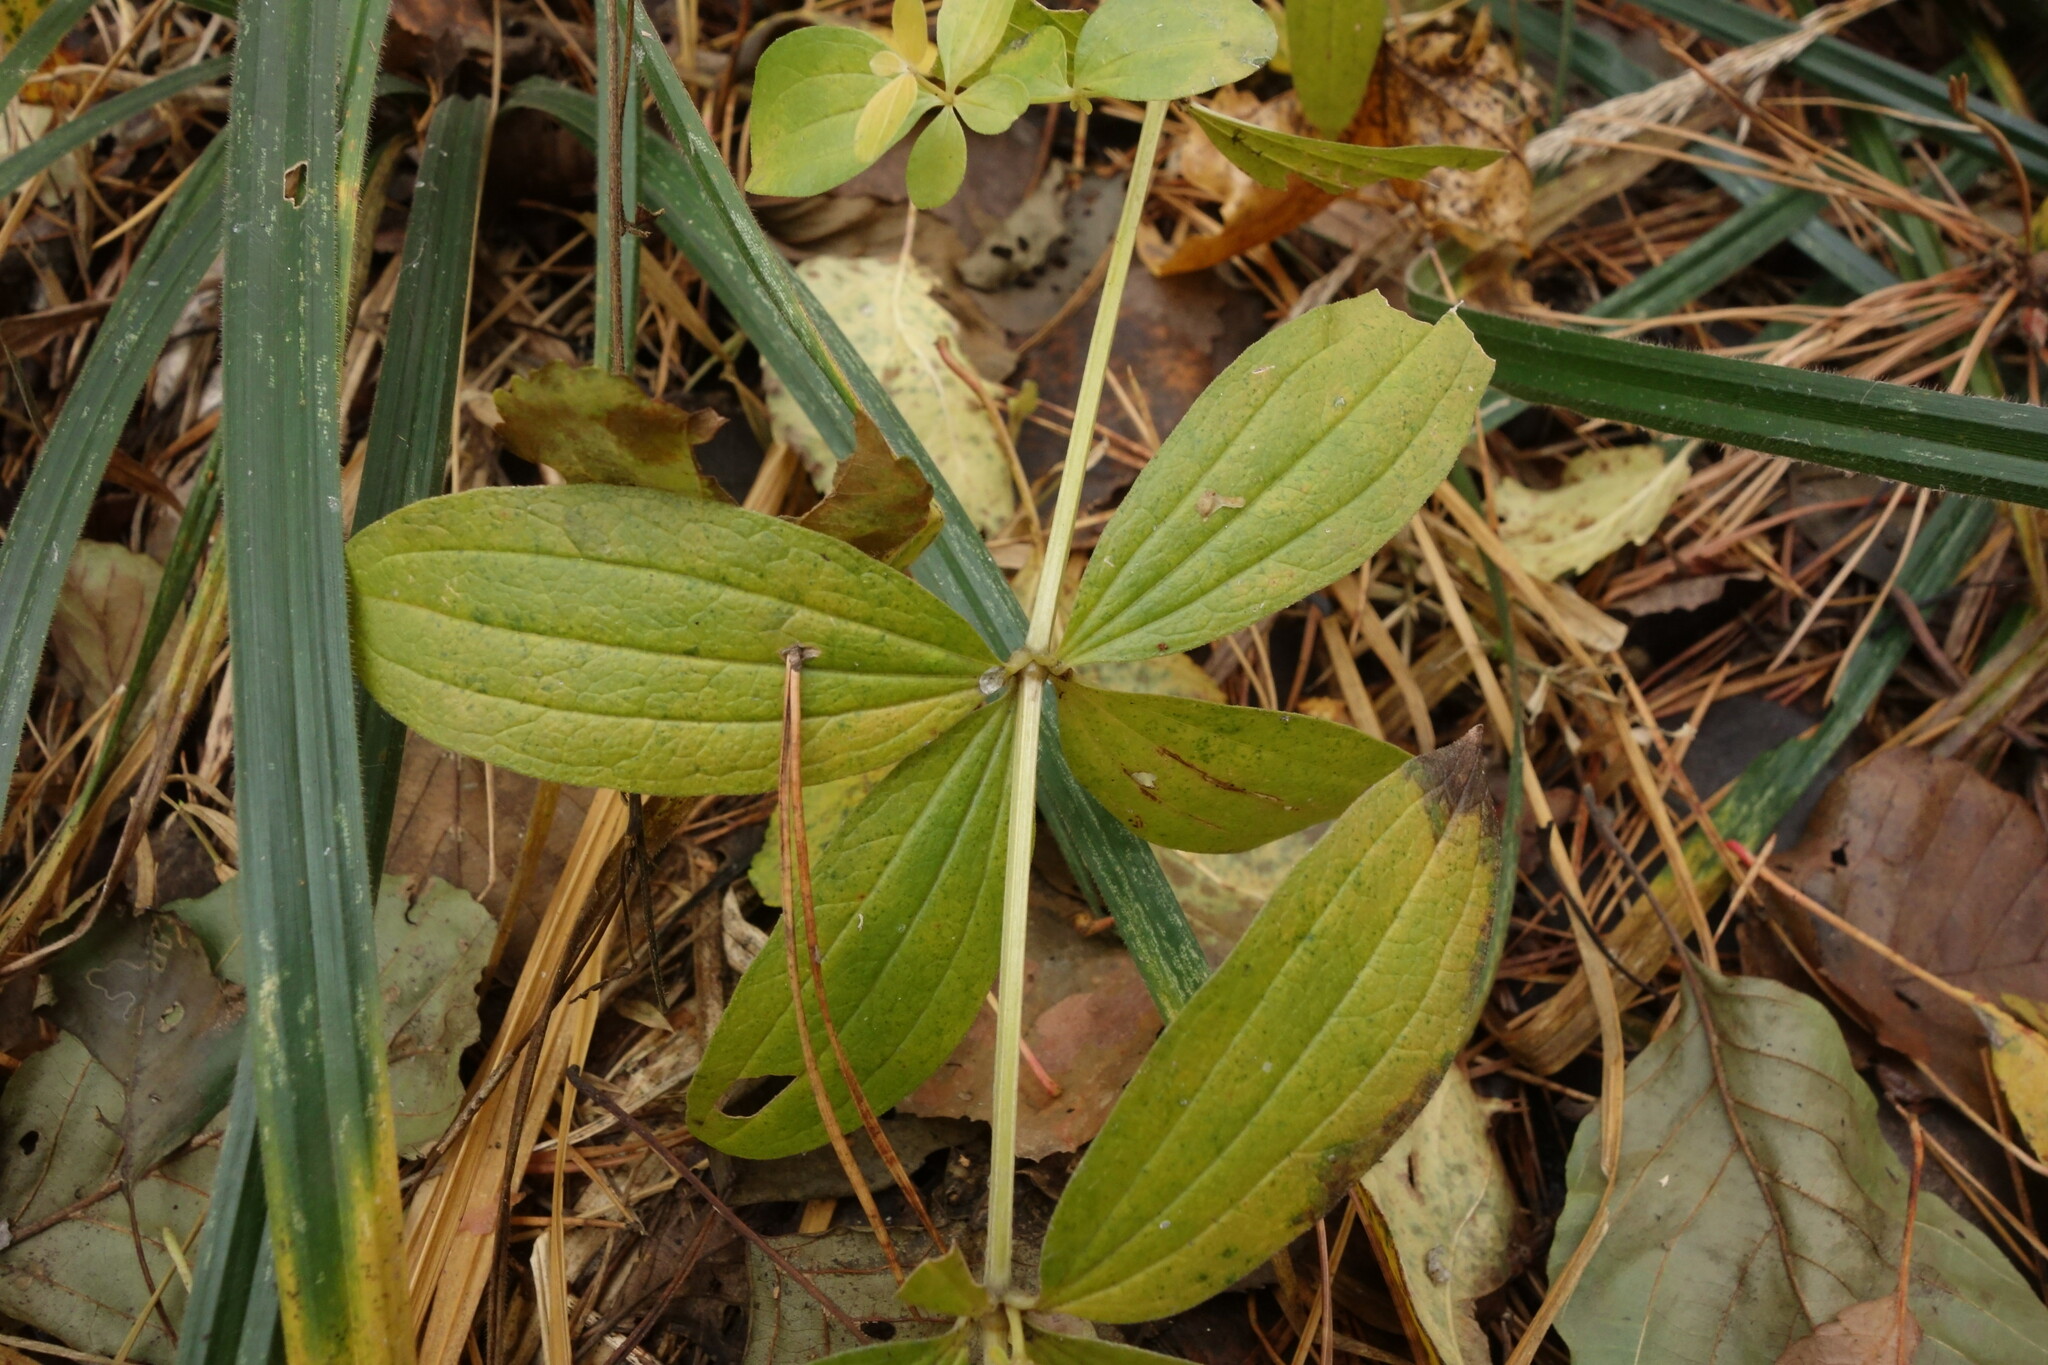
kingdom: Plantae
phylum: Tracheophyta
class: Magnoliopsida
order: Gentianales
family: Rubiaceae
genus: Galium
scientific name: Galium rubioides
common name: European bedstraw
